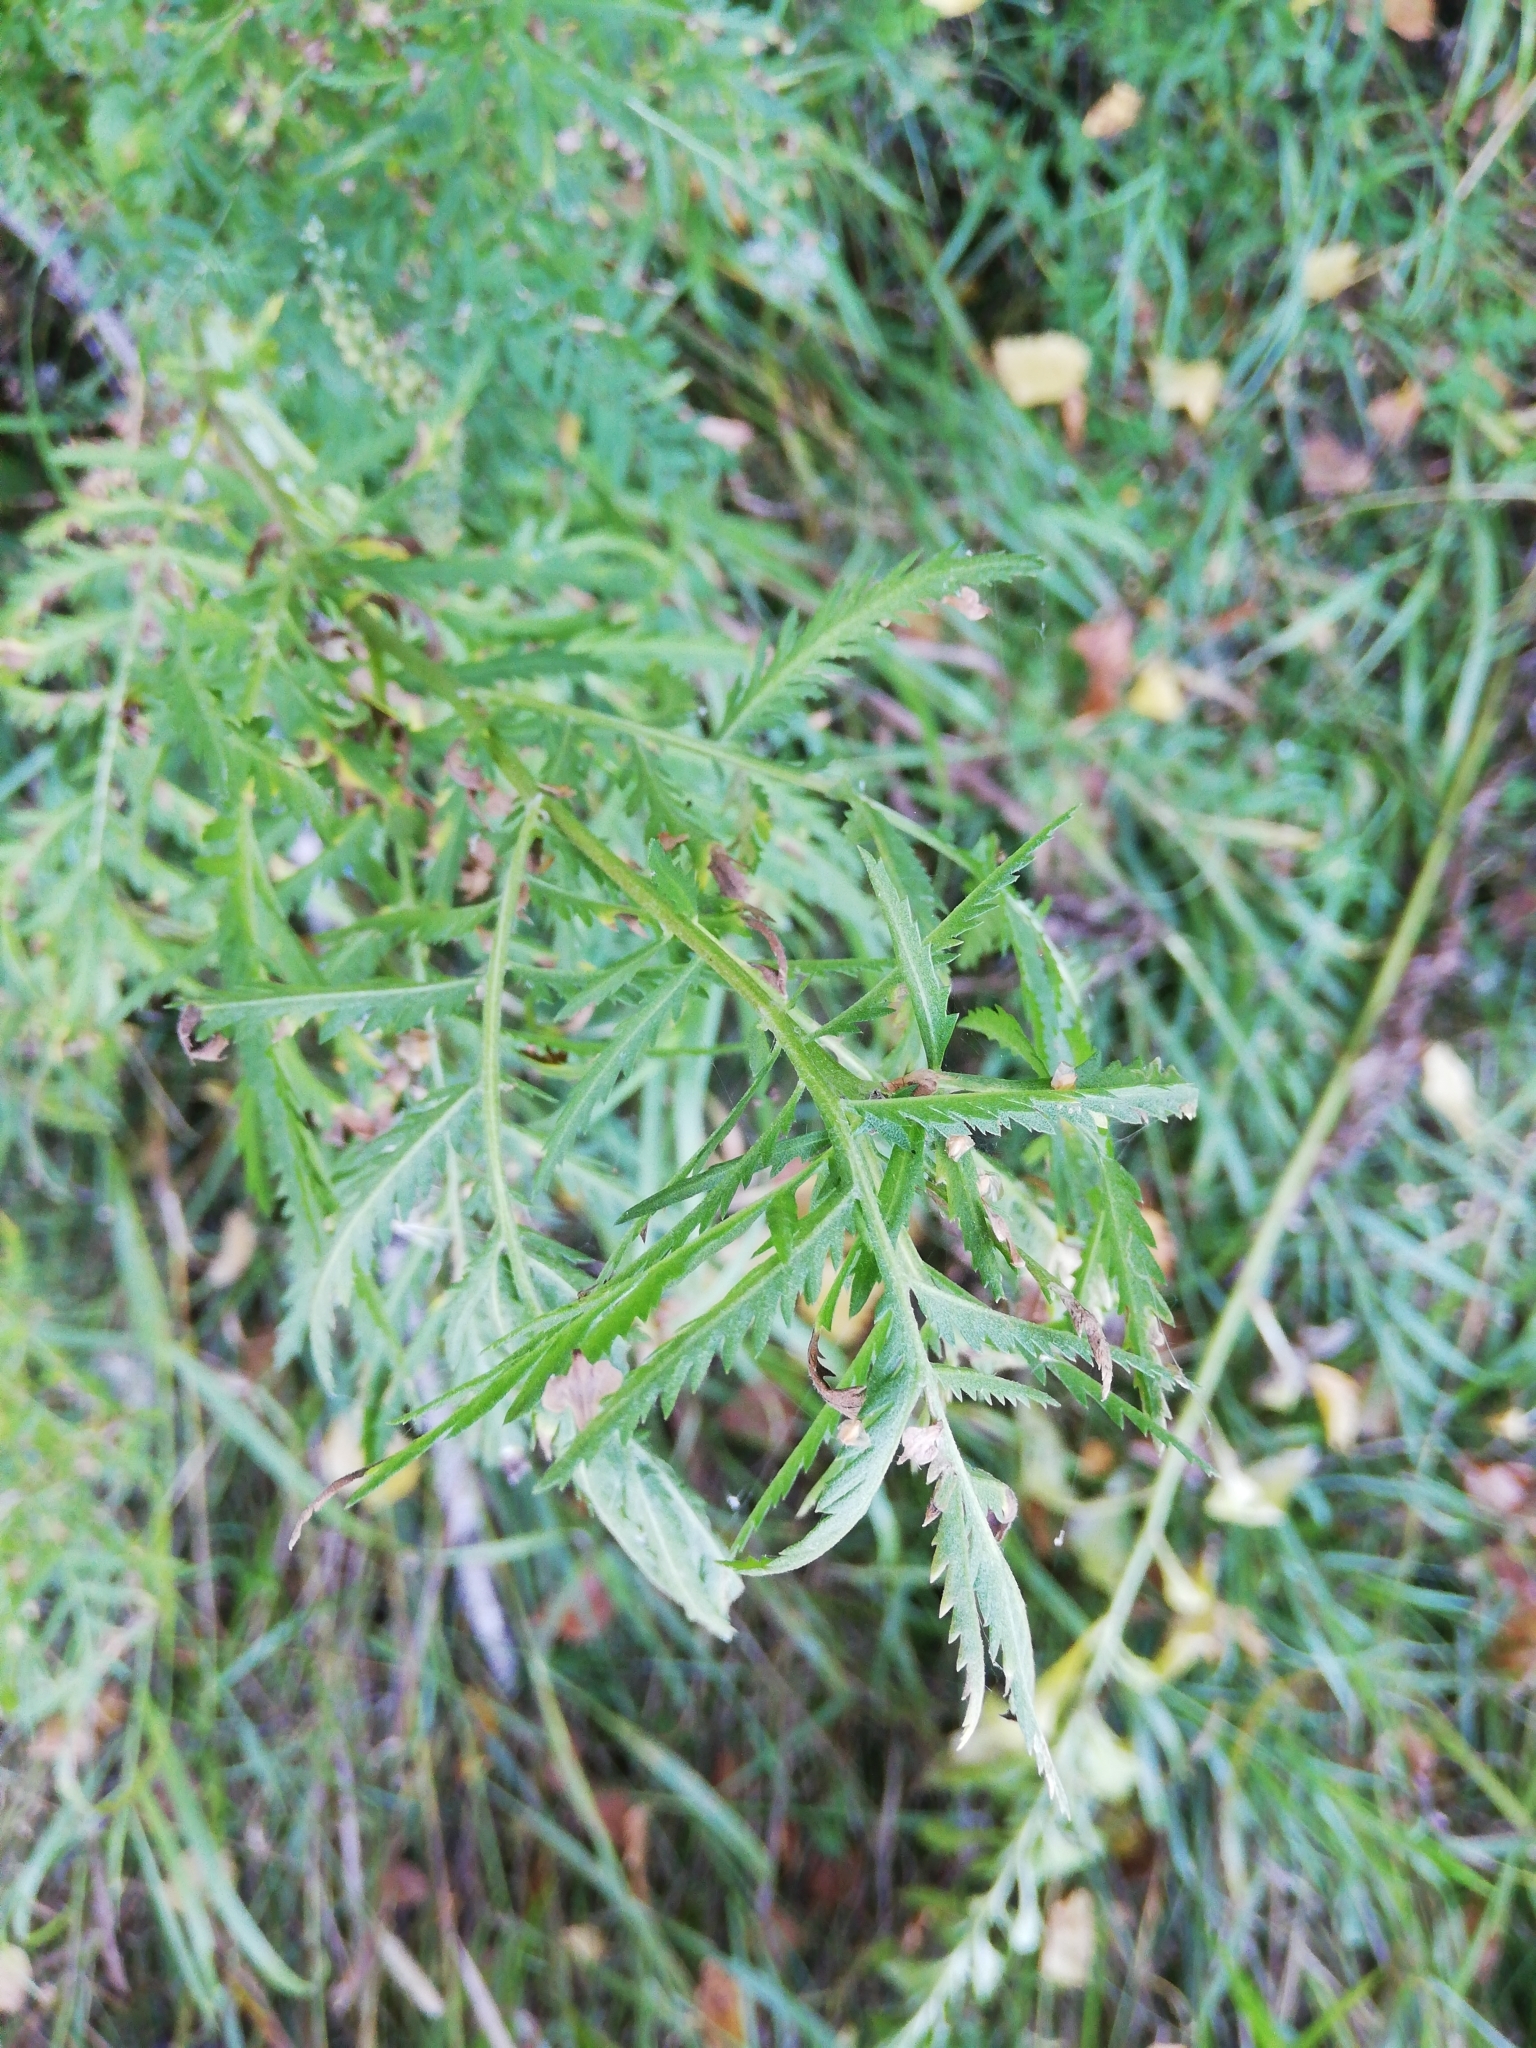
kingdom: Plantae
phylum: Tracheophyta
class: Magnoliopsida
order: Asterales
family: Asteraceae
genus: Tanacetum
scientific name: Tanacetum vulgare
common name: Common tansy
